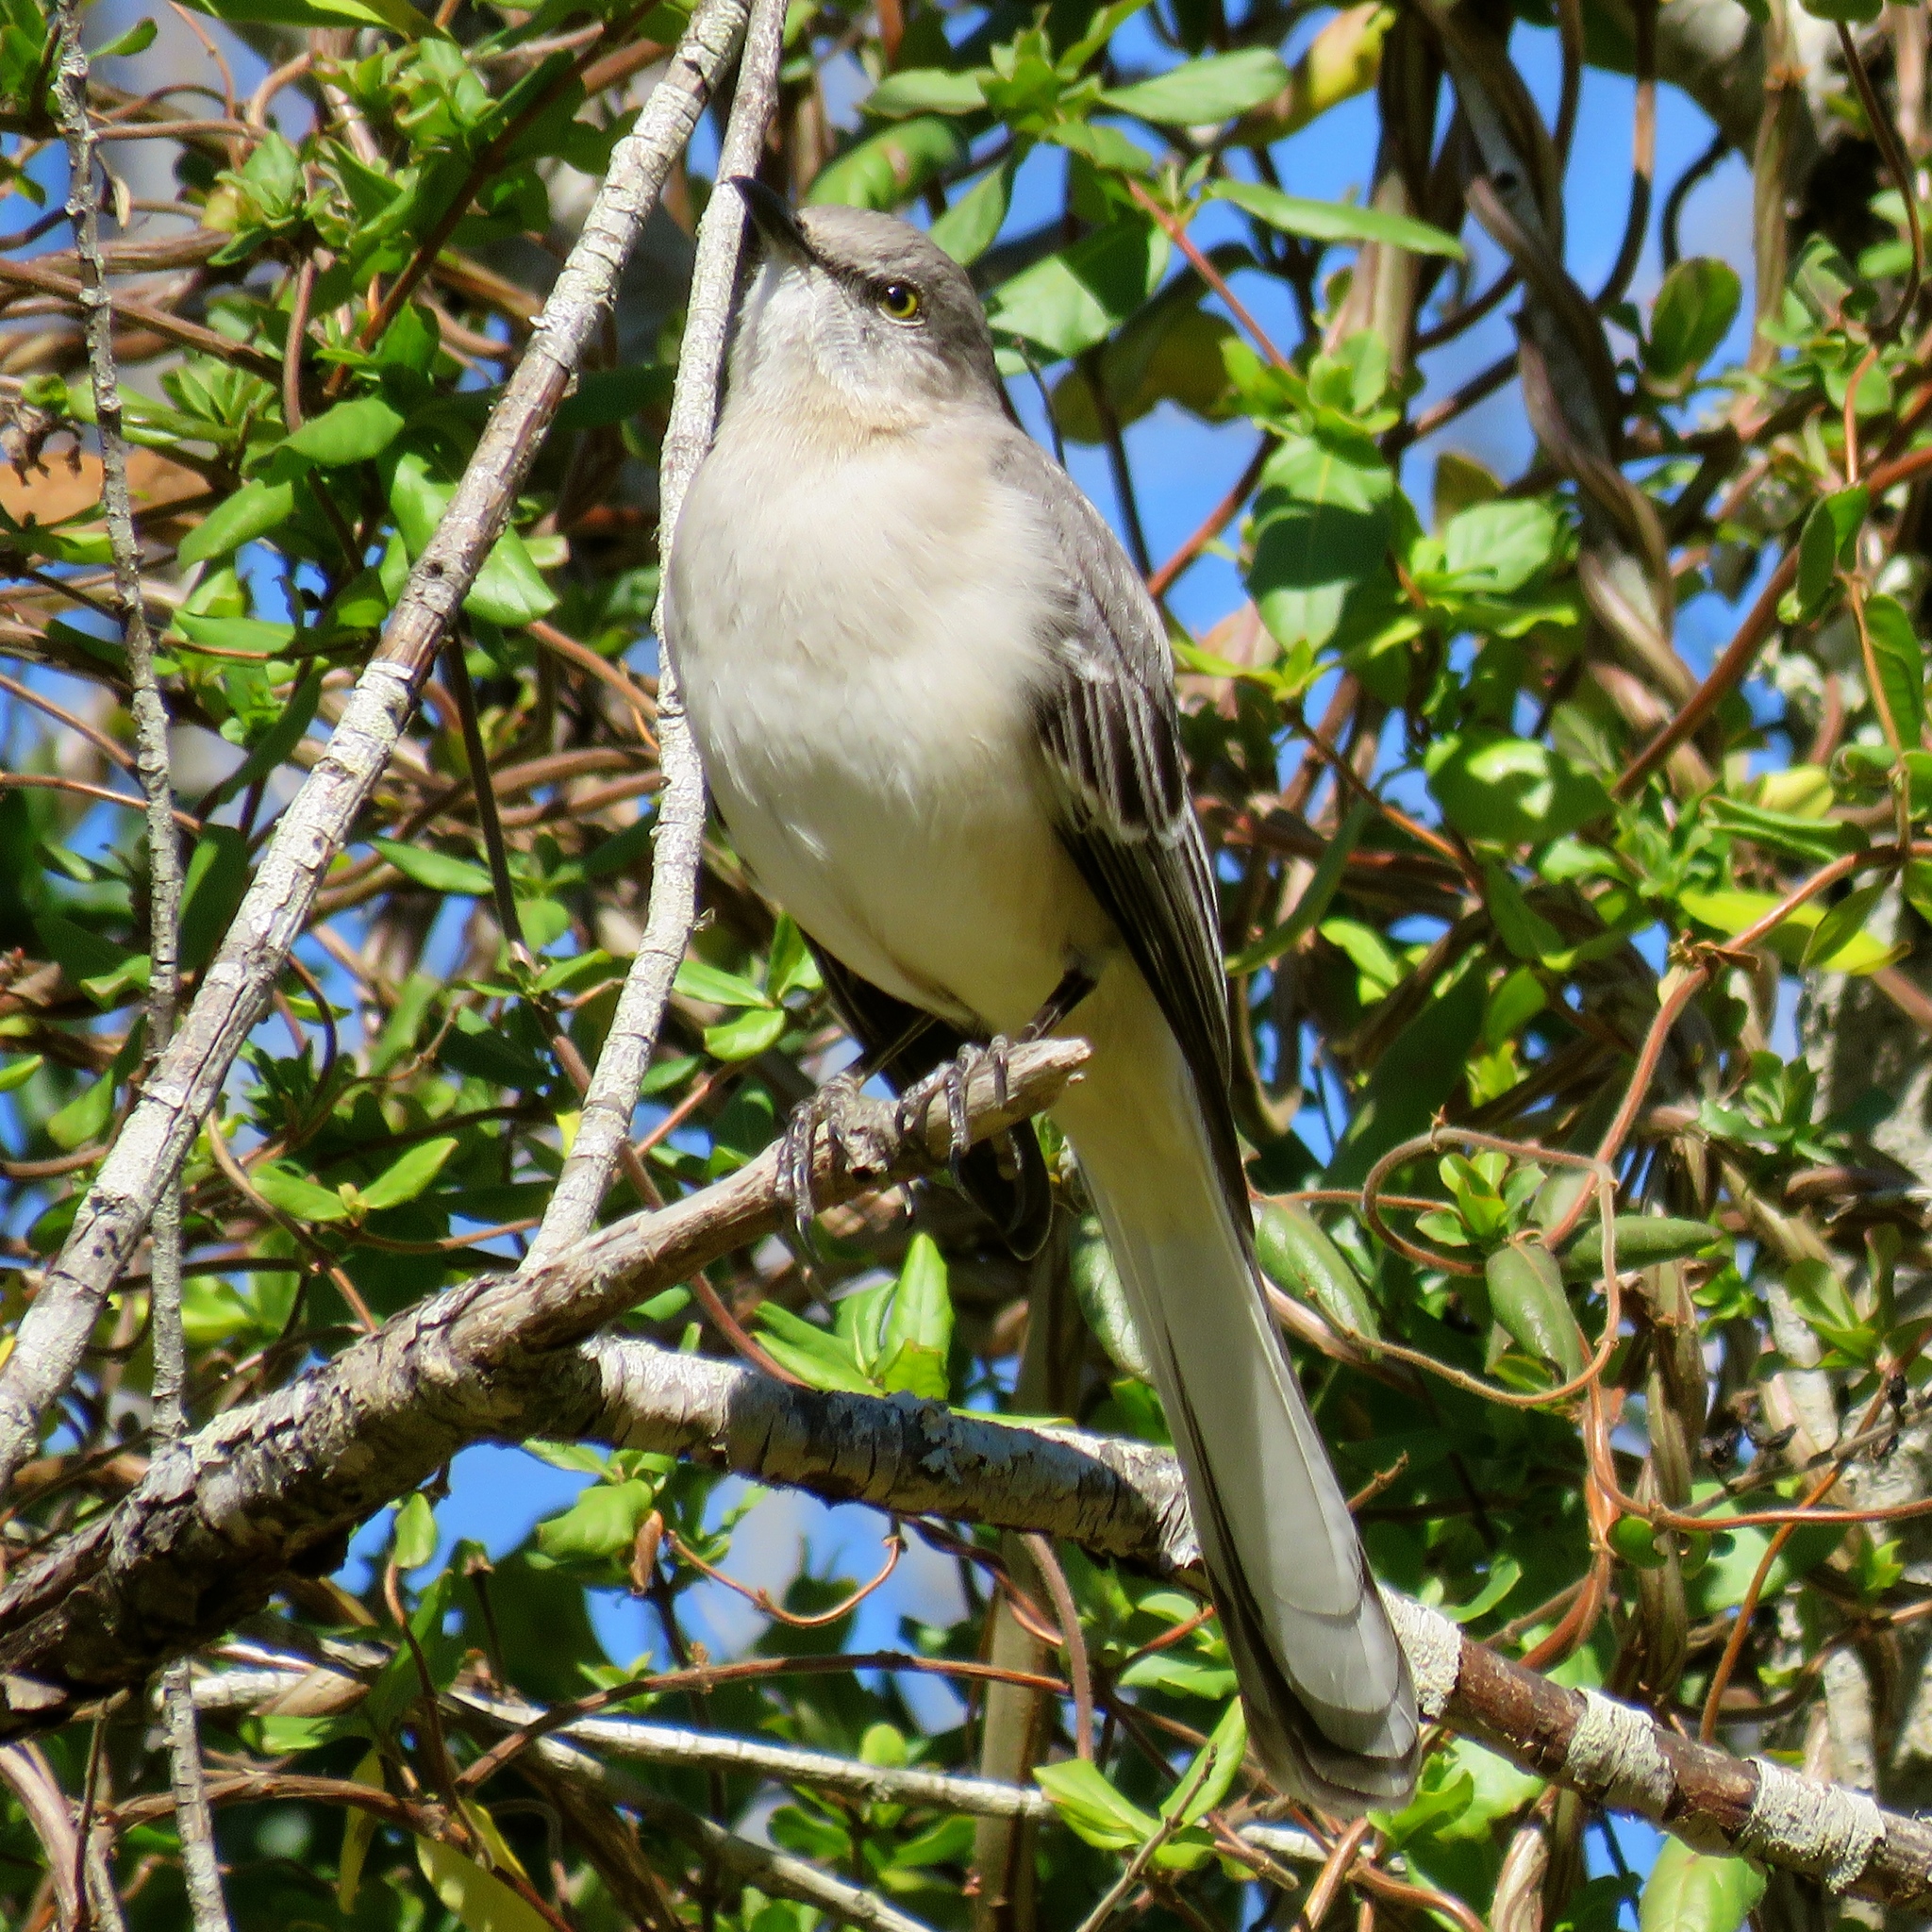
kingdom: Animalia
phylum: Chordata
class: Aves
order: Passeriformes
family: Mimidae
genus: Mimus
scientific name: Mimus polyglottos
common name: Northern mockingbird
